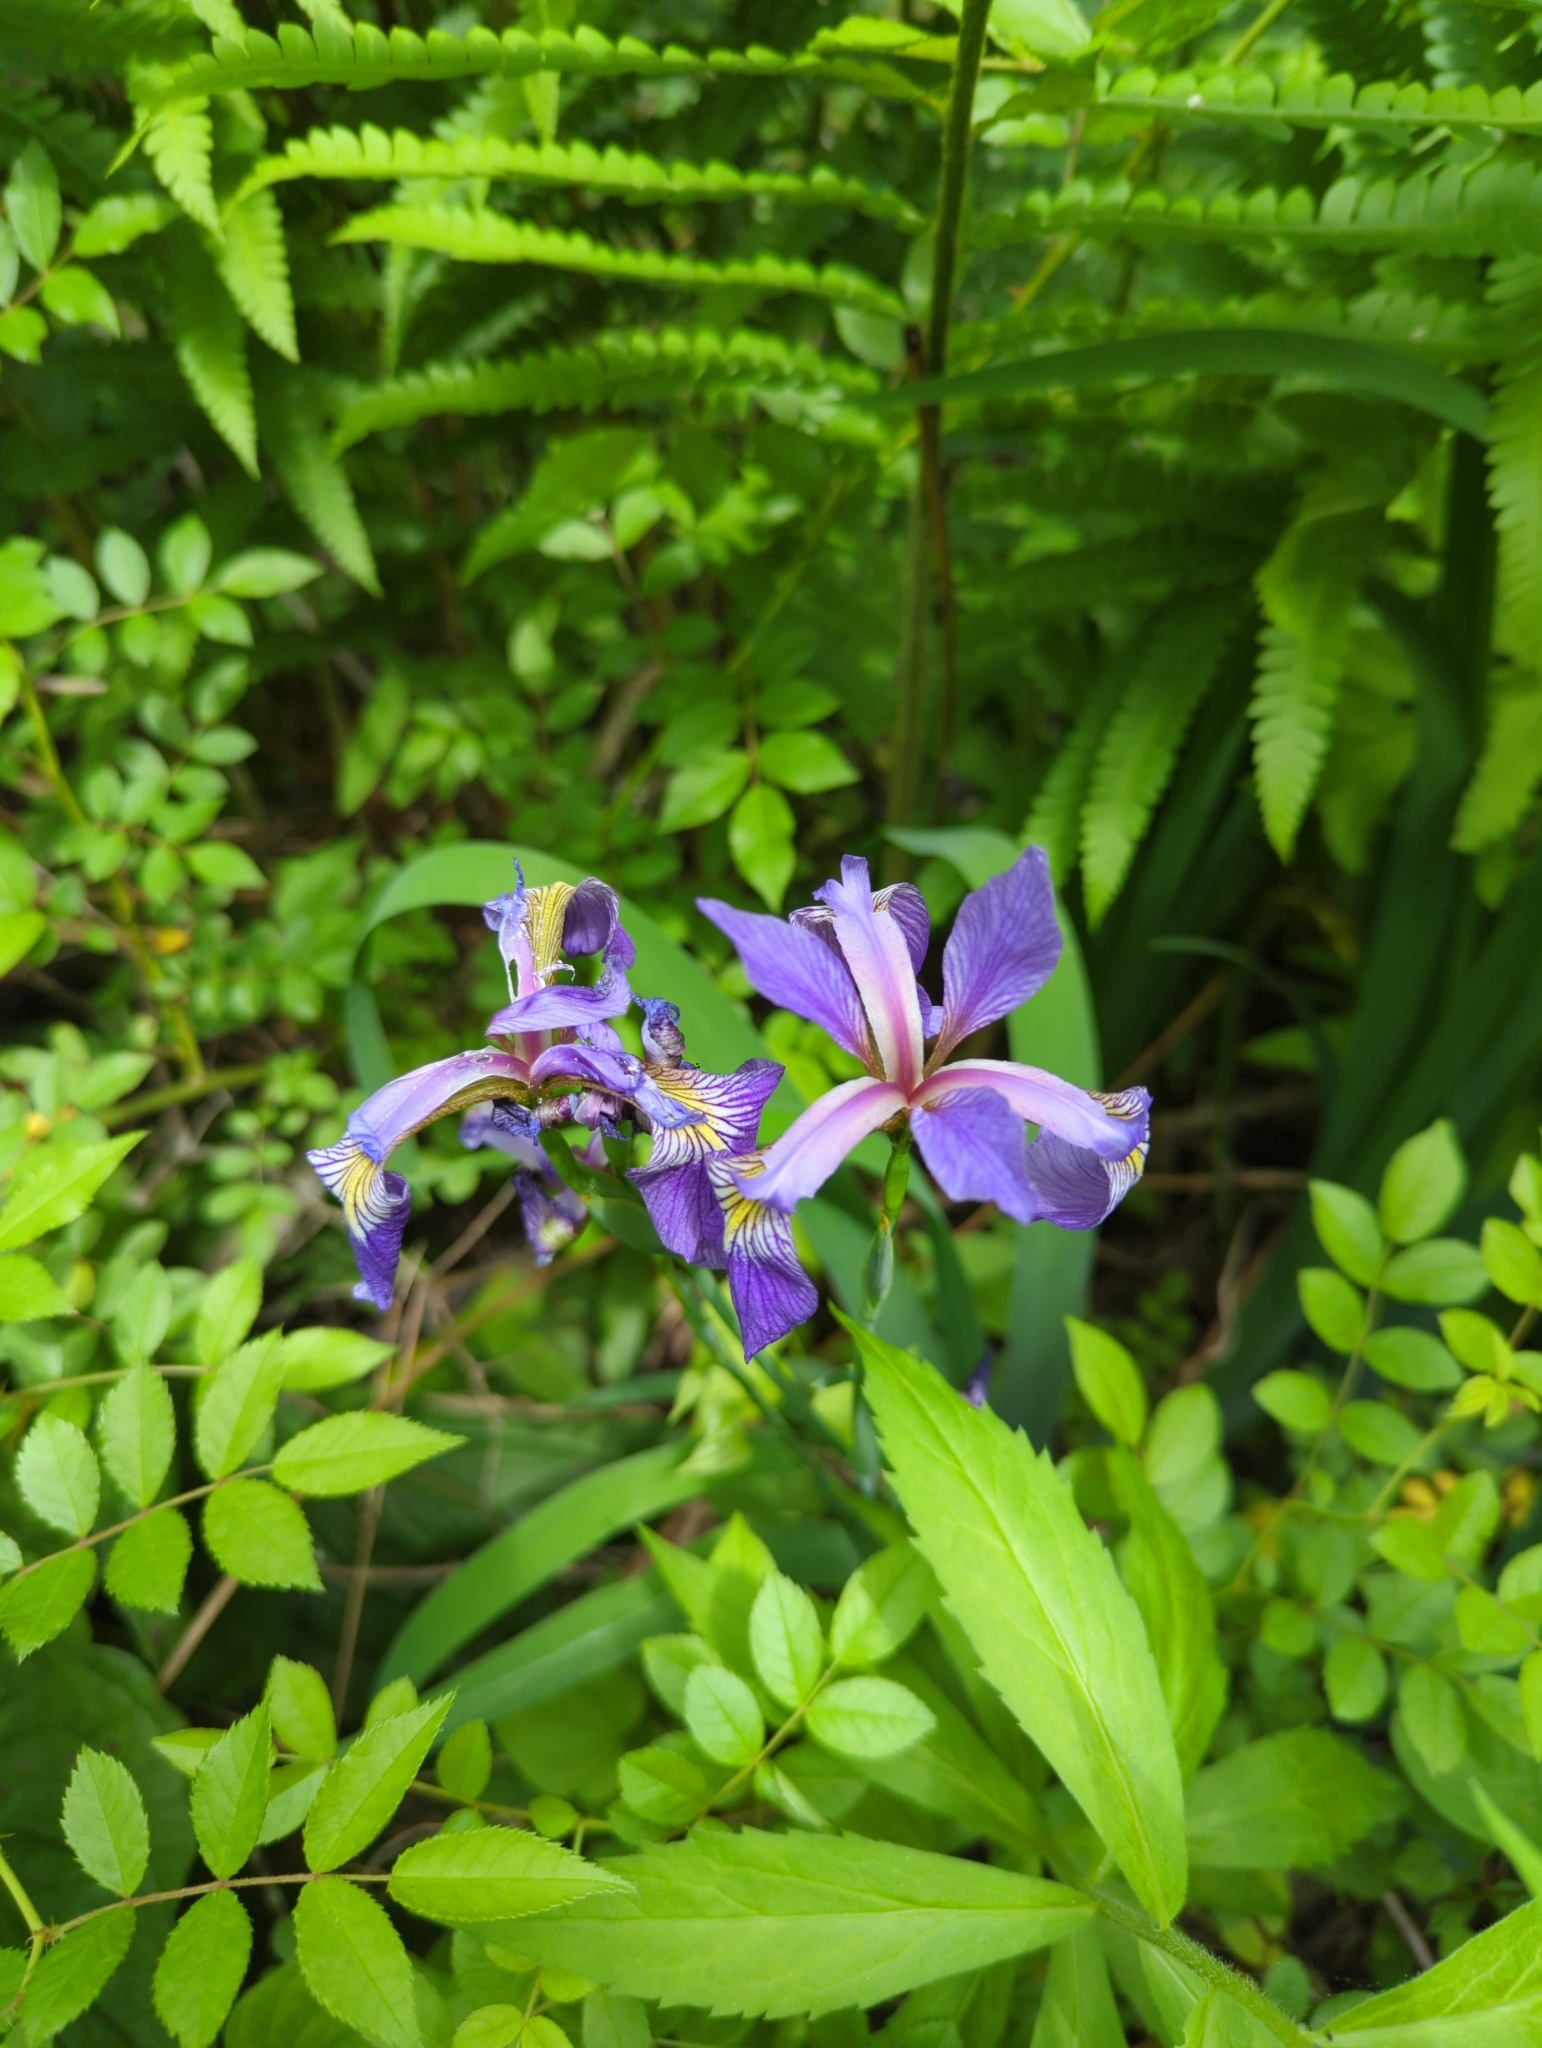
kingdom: Plantae
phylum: Tracheophyta
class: Liliopsida
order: Asparagales
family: Iridaceae
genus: Iris
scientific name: Iris versicolor
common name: Purple iris
